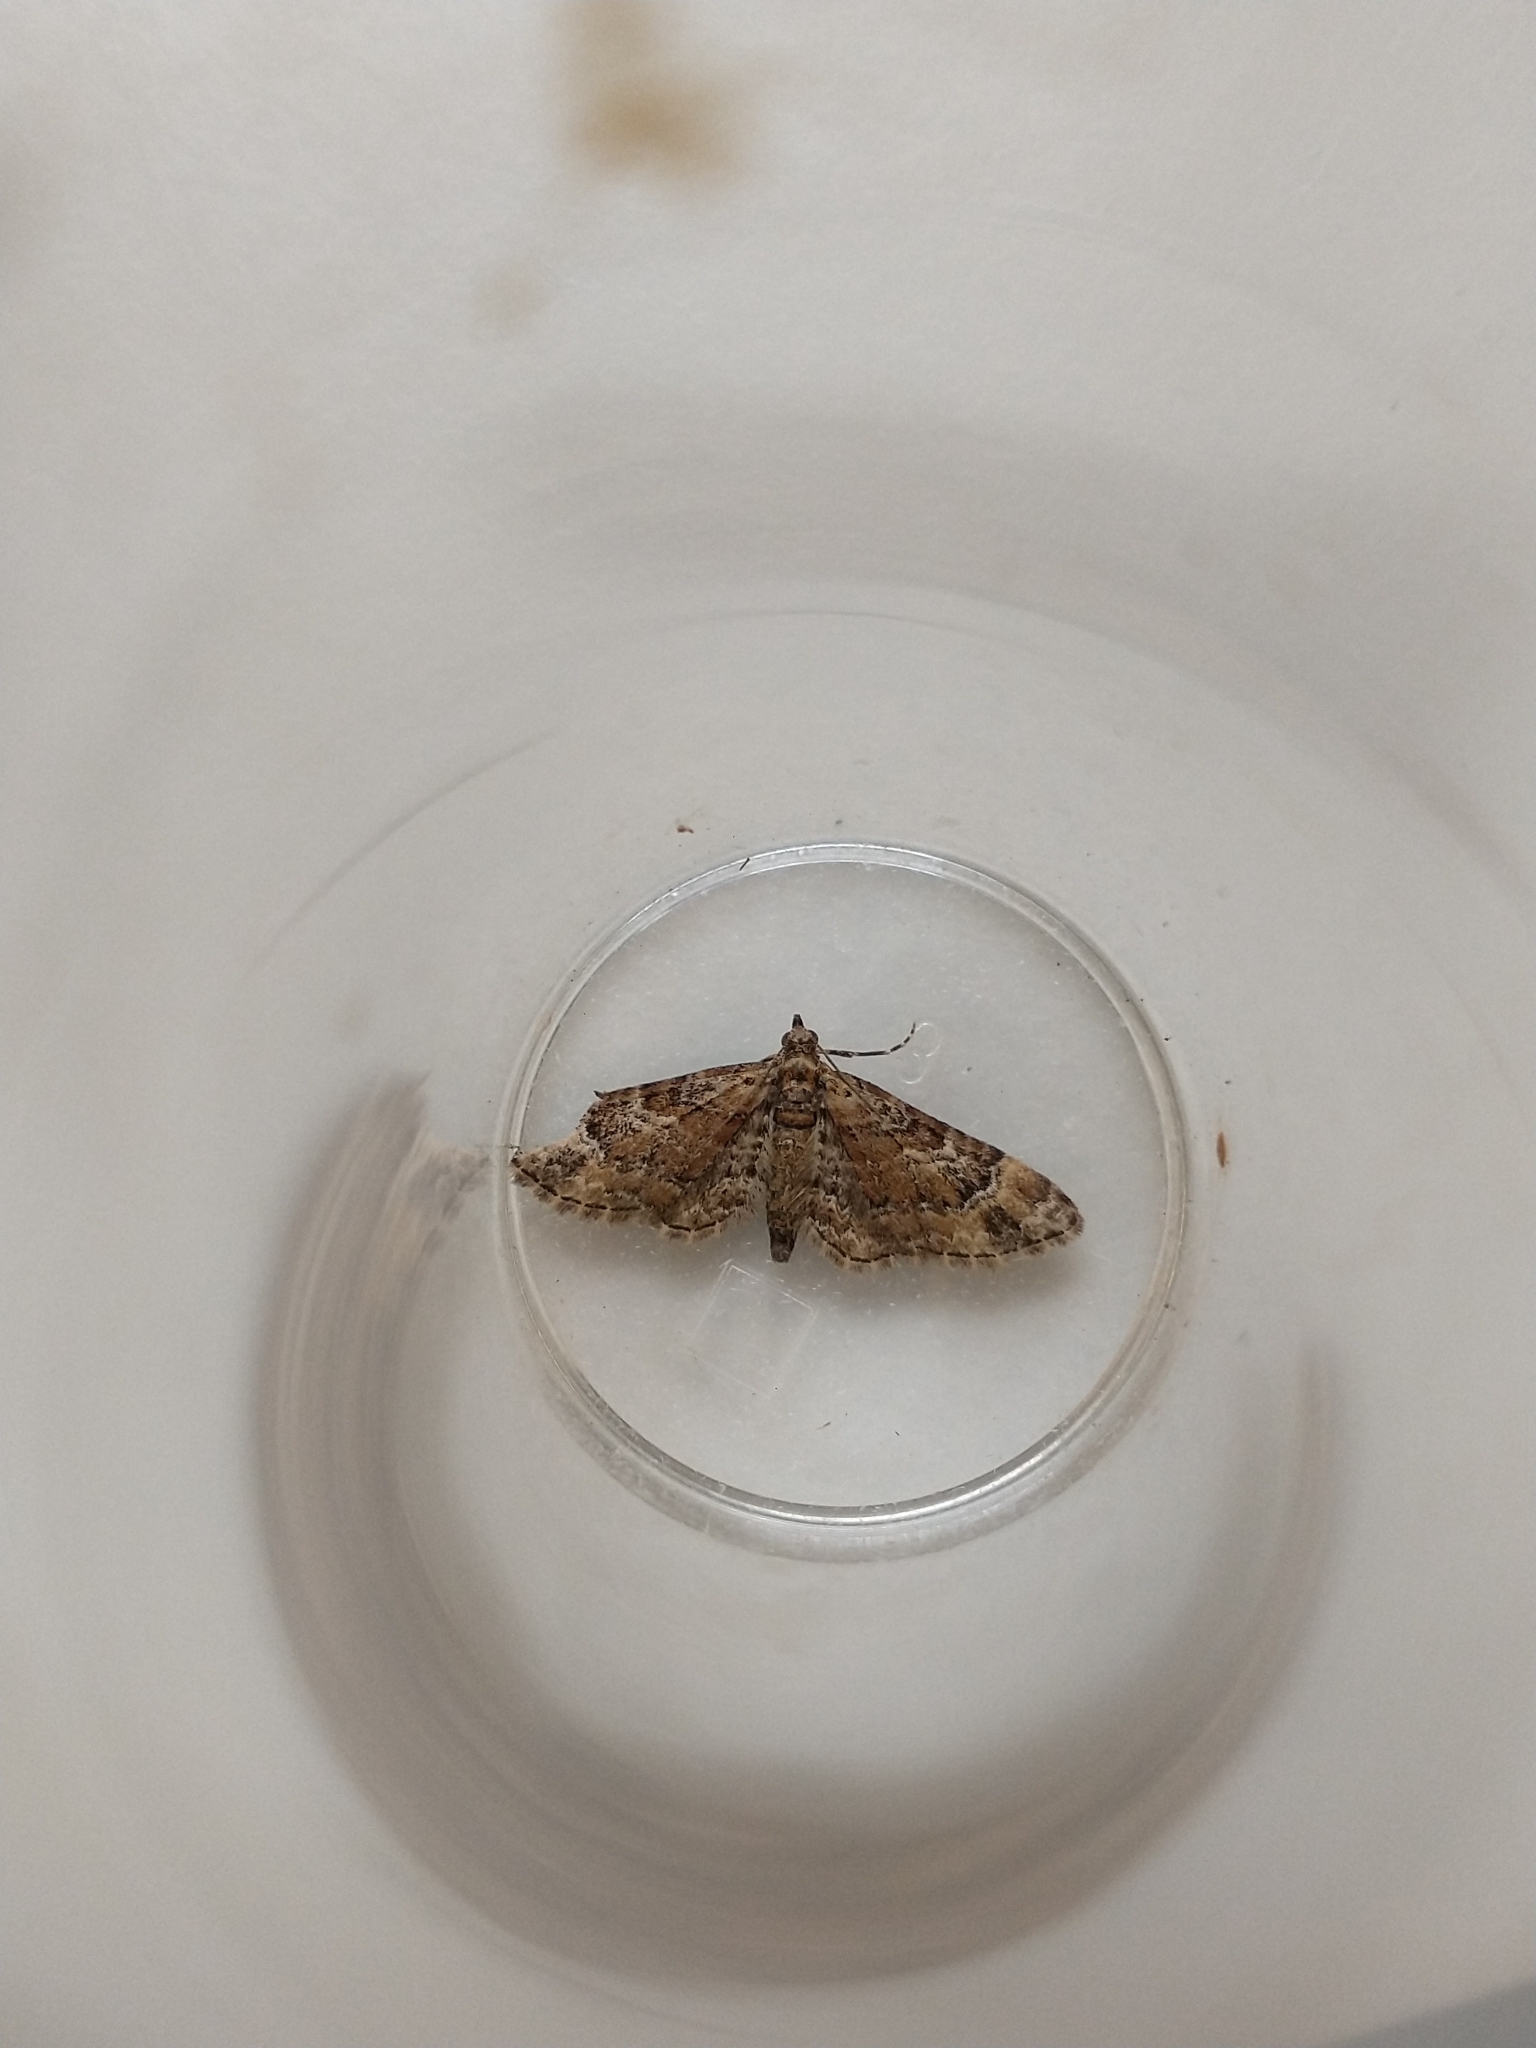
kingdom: Animalia
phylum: Arthropoda
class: Insecta
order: Lepidoptera
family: Geometridae
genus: Gymnoscelis
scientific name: Gymnoscelis rufifasciata
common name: Double-striped pug
